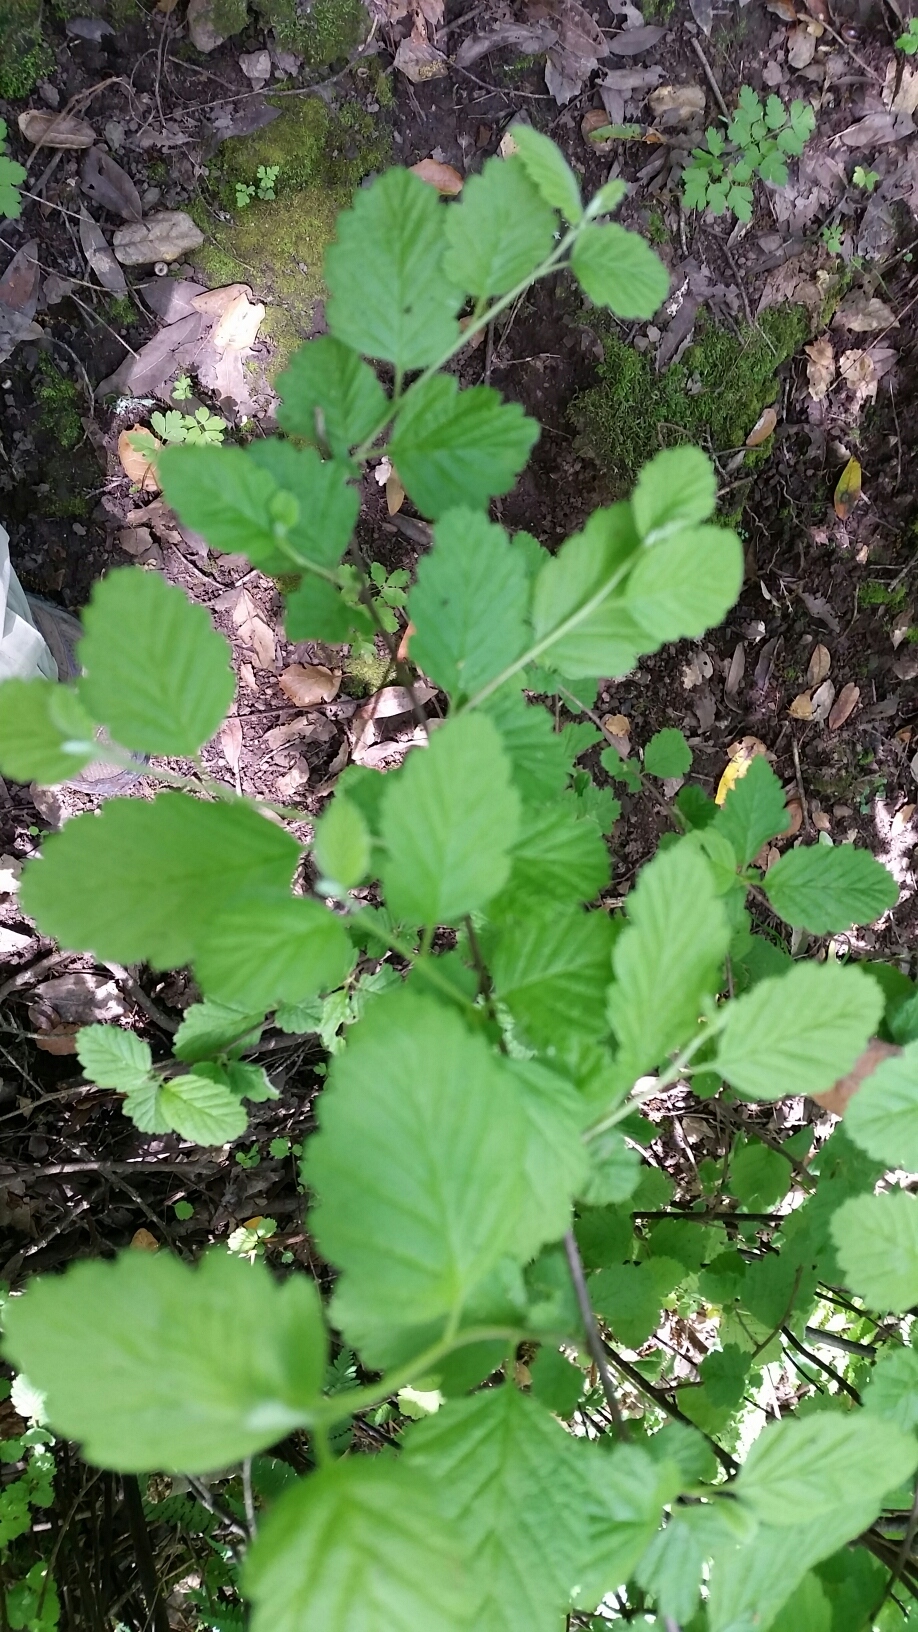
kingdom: Plantae
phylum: Tracheophyta
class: Magnoliopsida
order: Rosales
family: Rosaceae
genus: Holodiscus
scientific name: Holodiscus discolor
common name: Oceanspray
